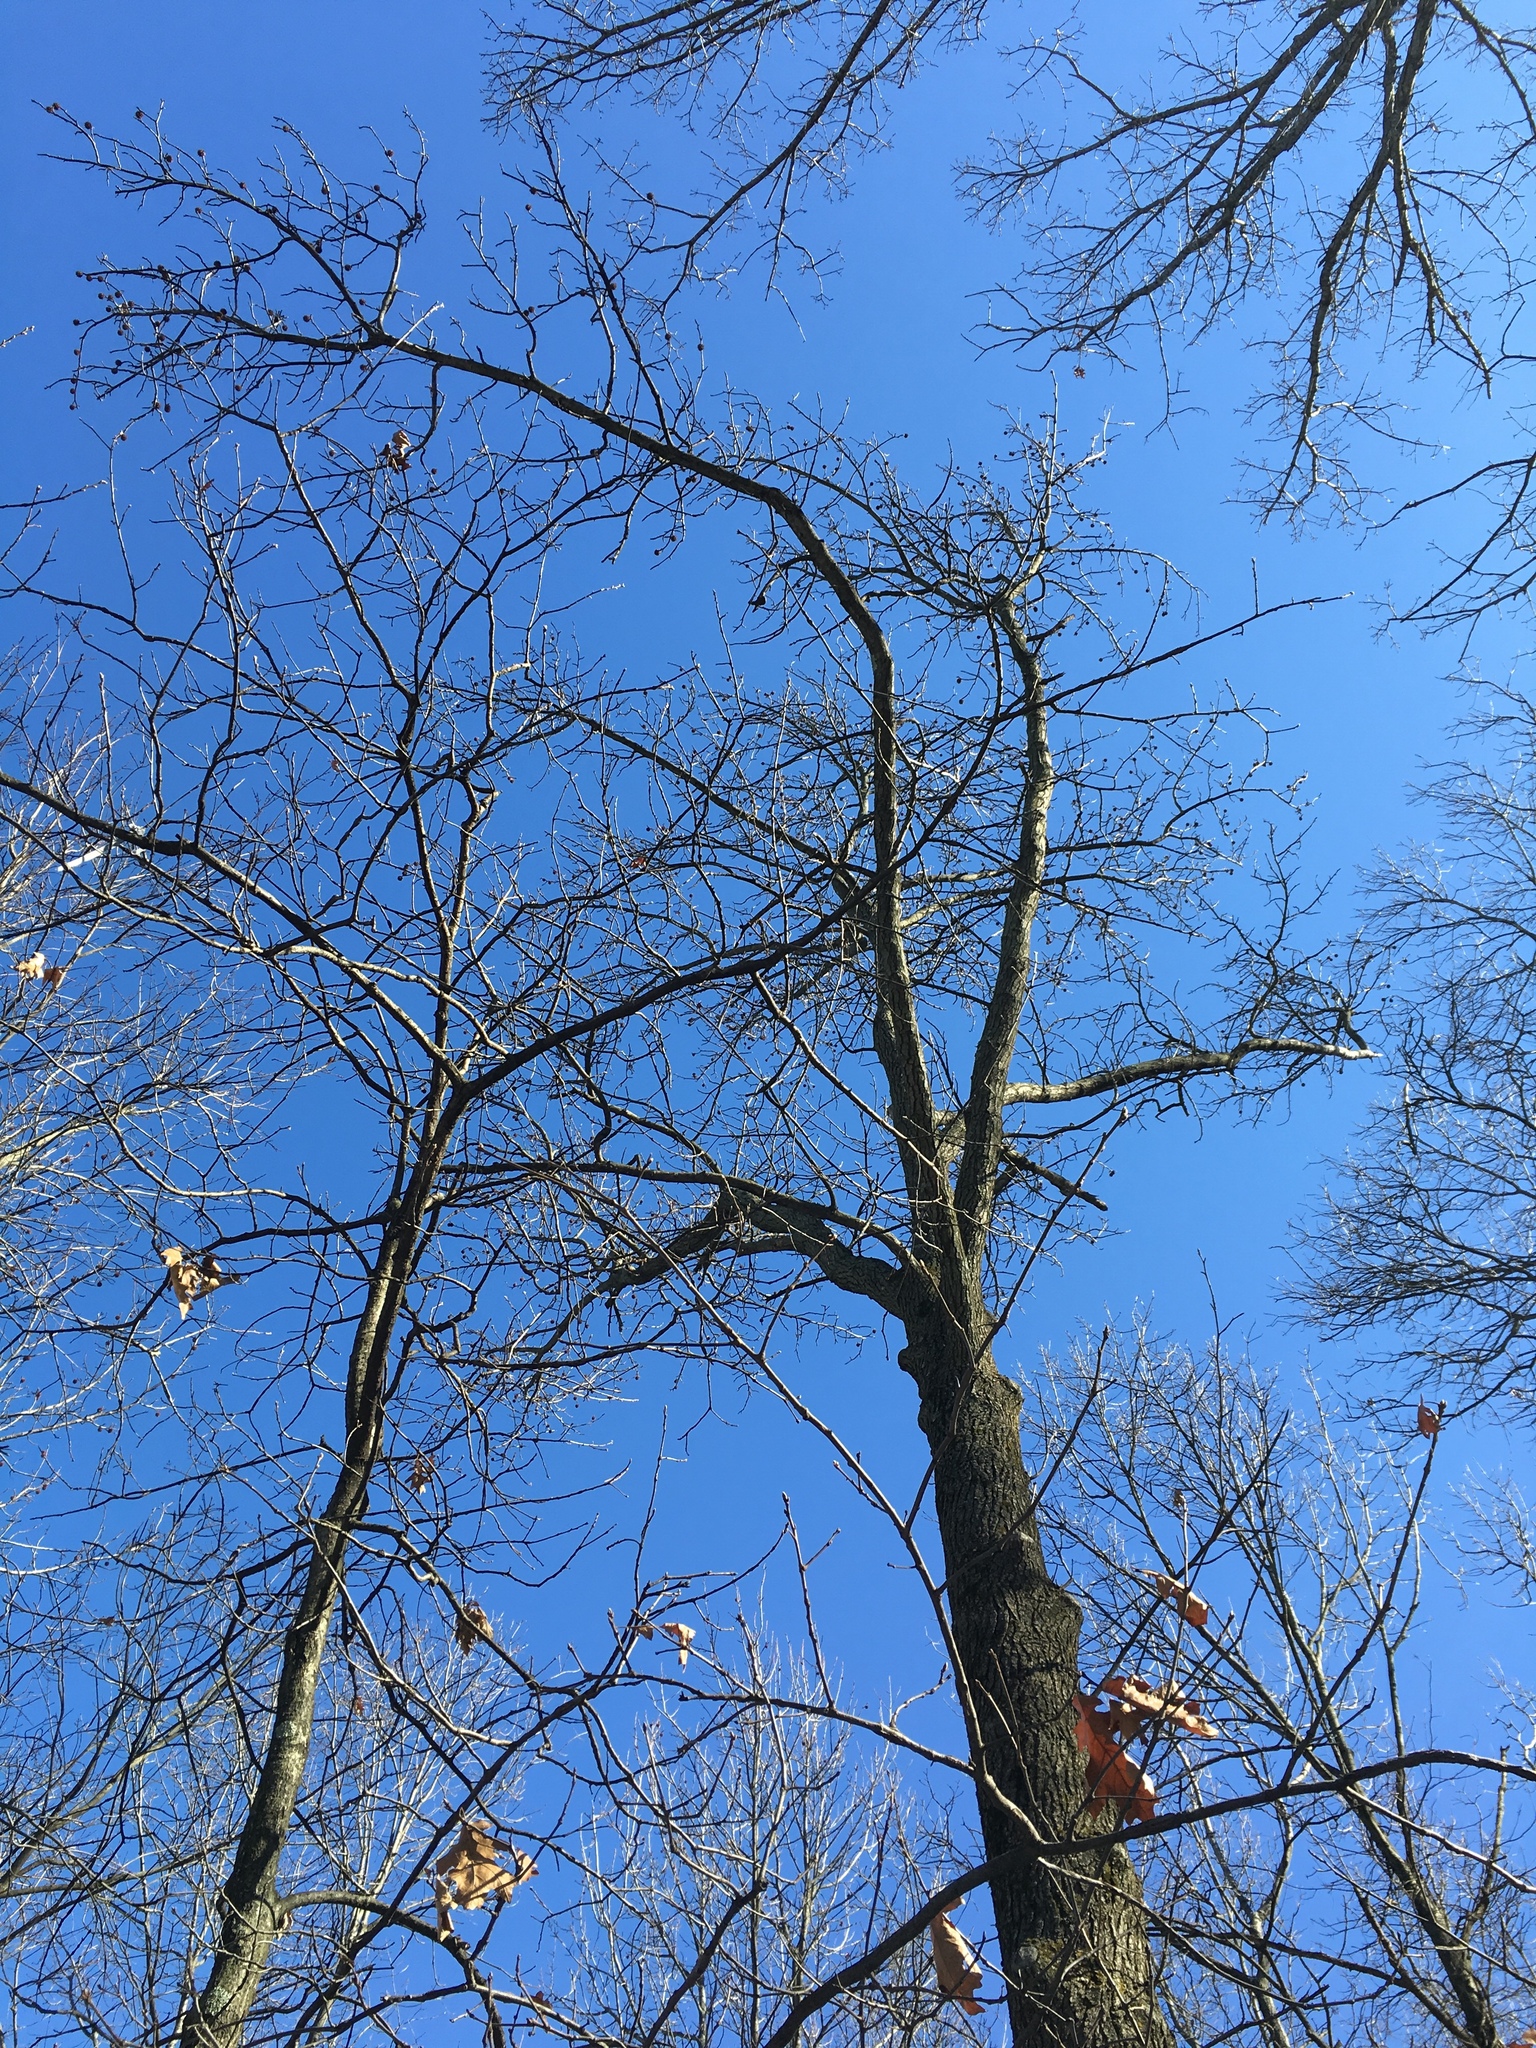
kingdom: Plantae
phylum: Tracheophyta
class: Magnoliopsida
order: Saxifragales
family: Altingiaceae
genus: Liquidambar
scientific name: Liquidambar styraciflua
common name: Sweet gum
